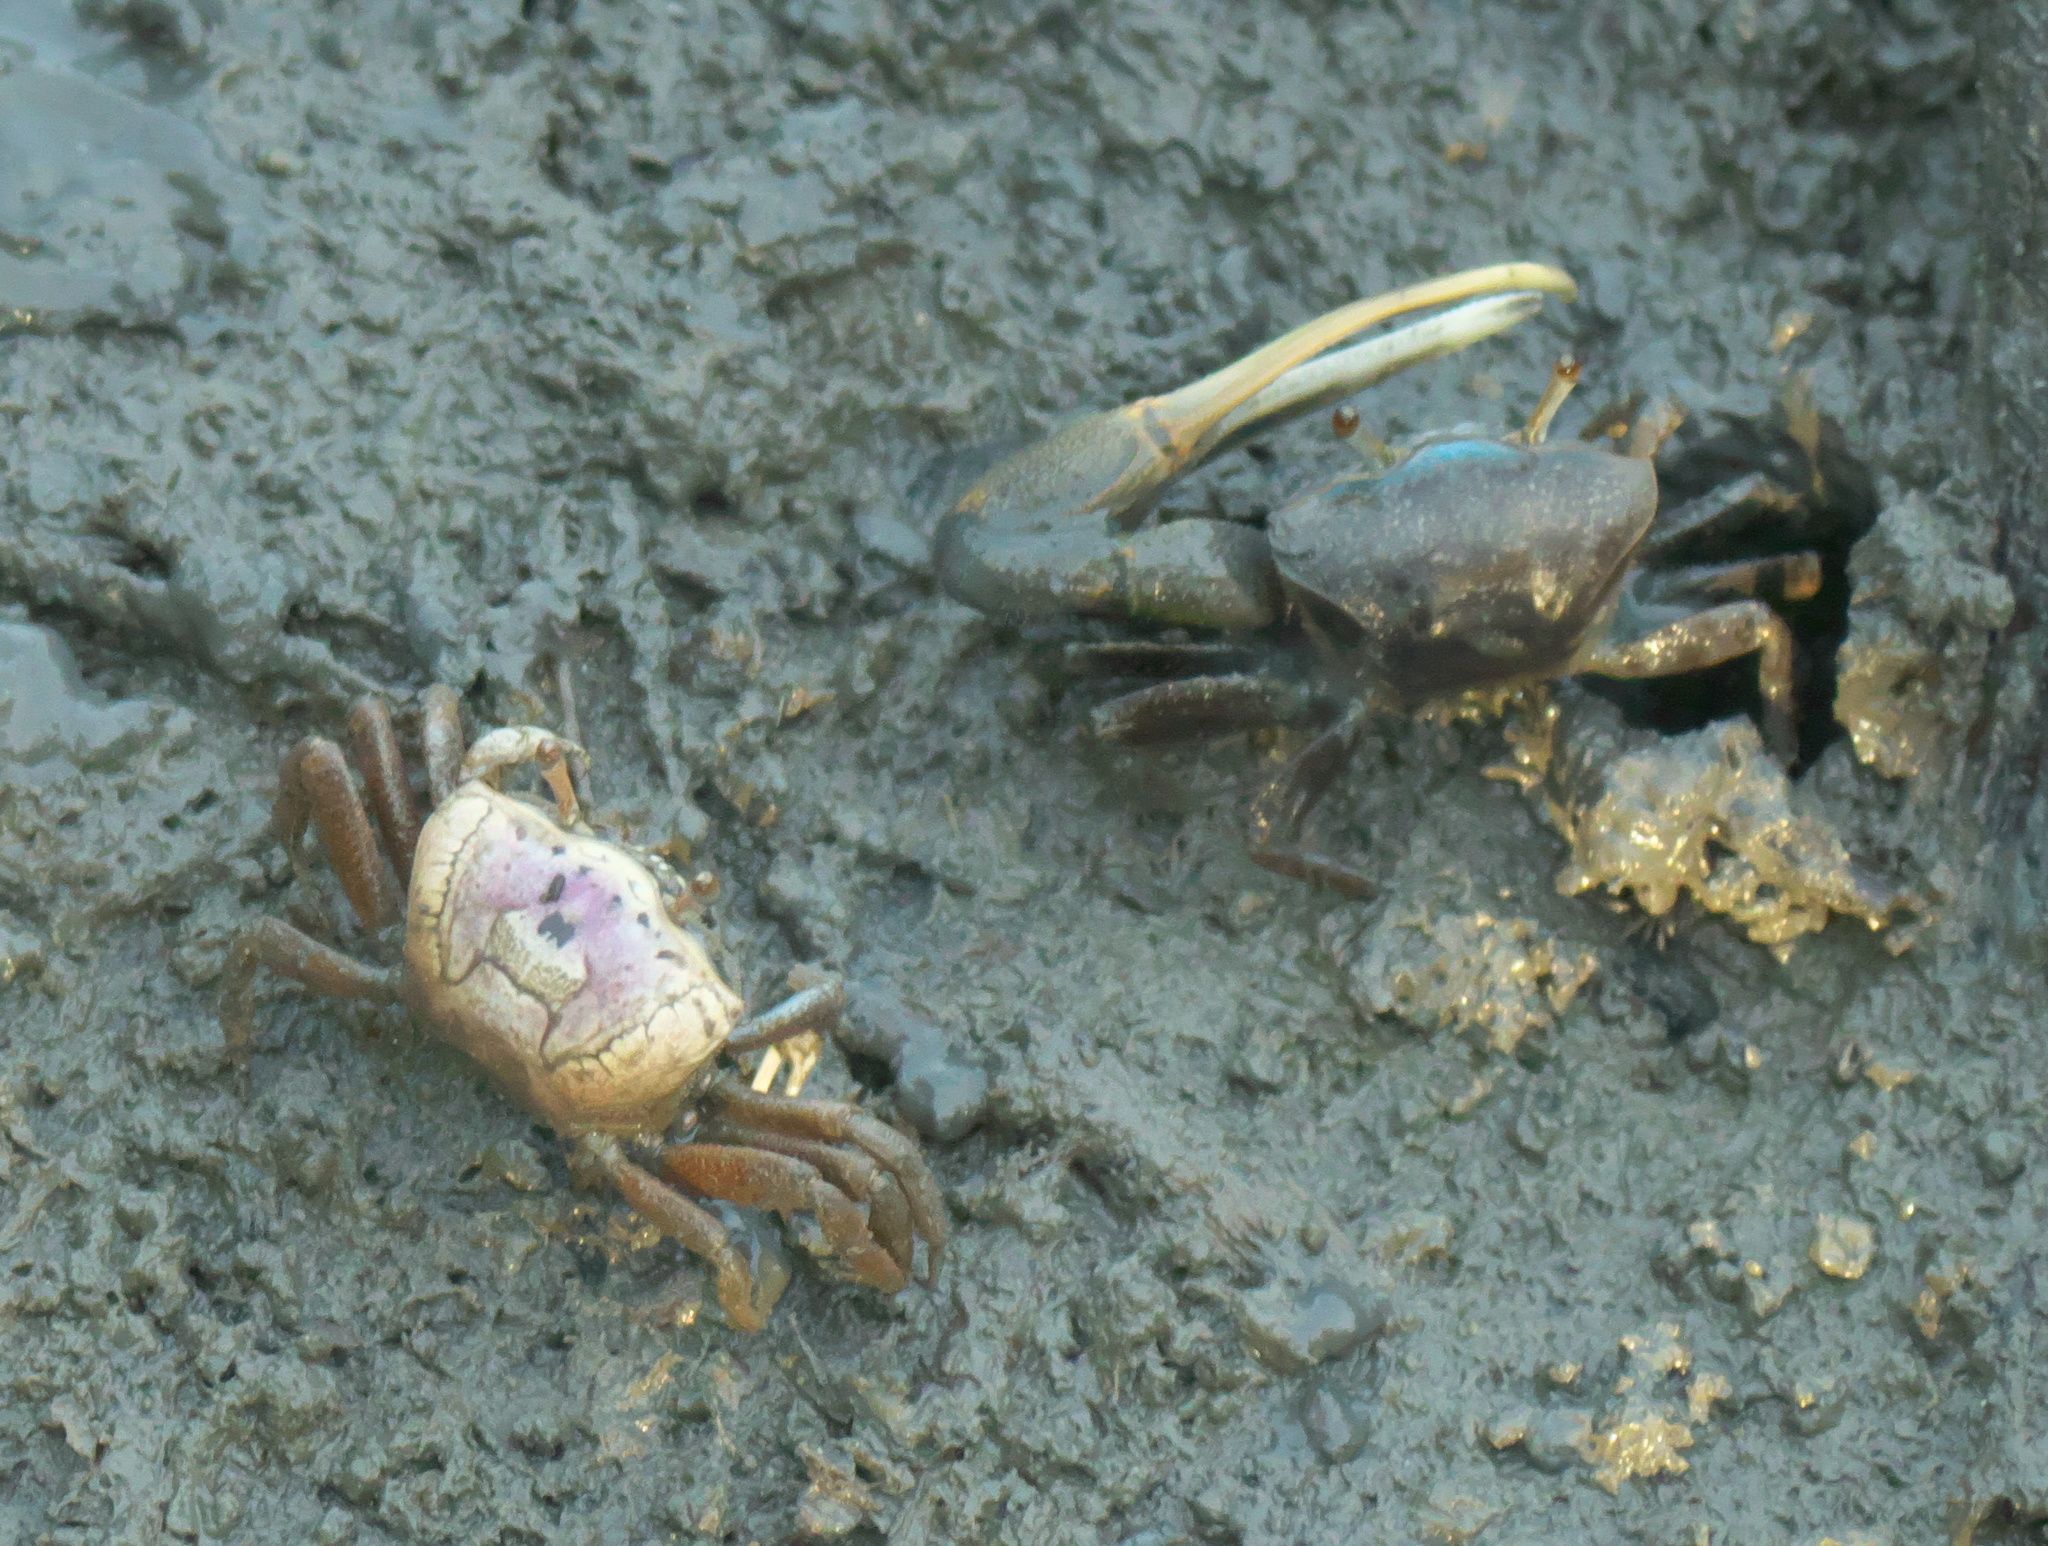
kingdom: Animalia
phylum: Arthropoda
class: Malacostraca
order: Decapoda
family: Ocypodidae
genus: Minuca
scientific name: Minuca pugnax
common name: Mud fiddler crab
